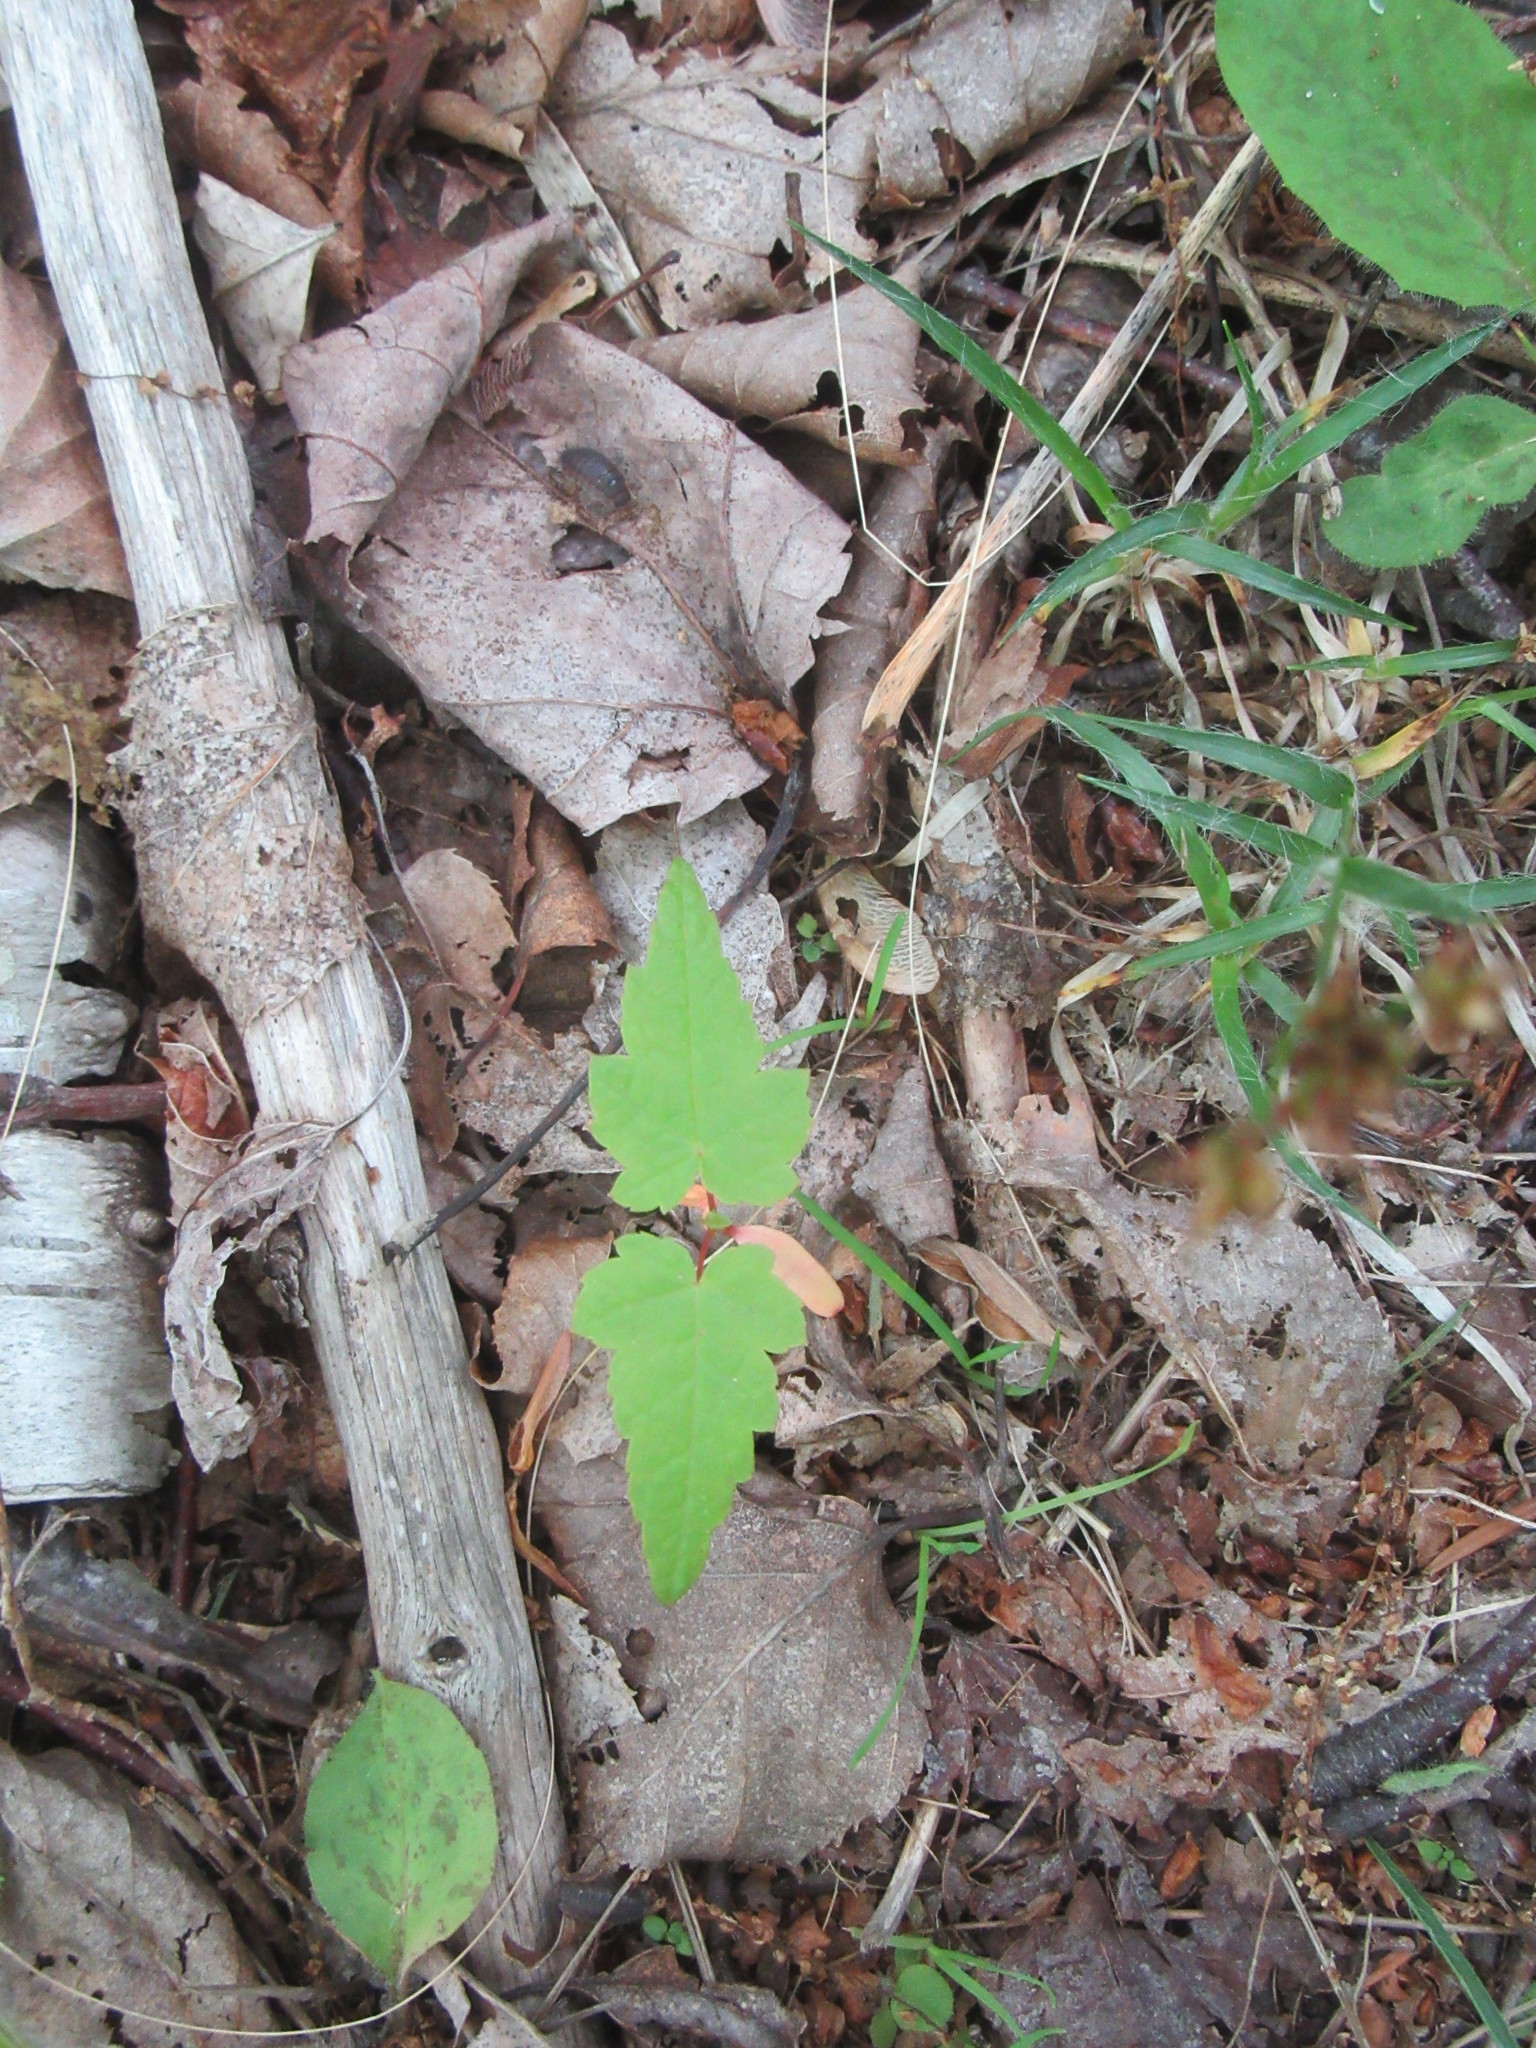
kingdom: Plantae
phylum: Tracheophyta
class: Magnoliopsida
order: Sapindales
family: Sapindaceae
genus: Acer
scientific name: Acer rubrum
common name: Red maple
